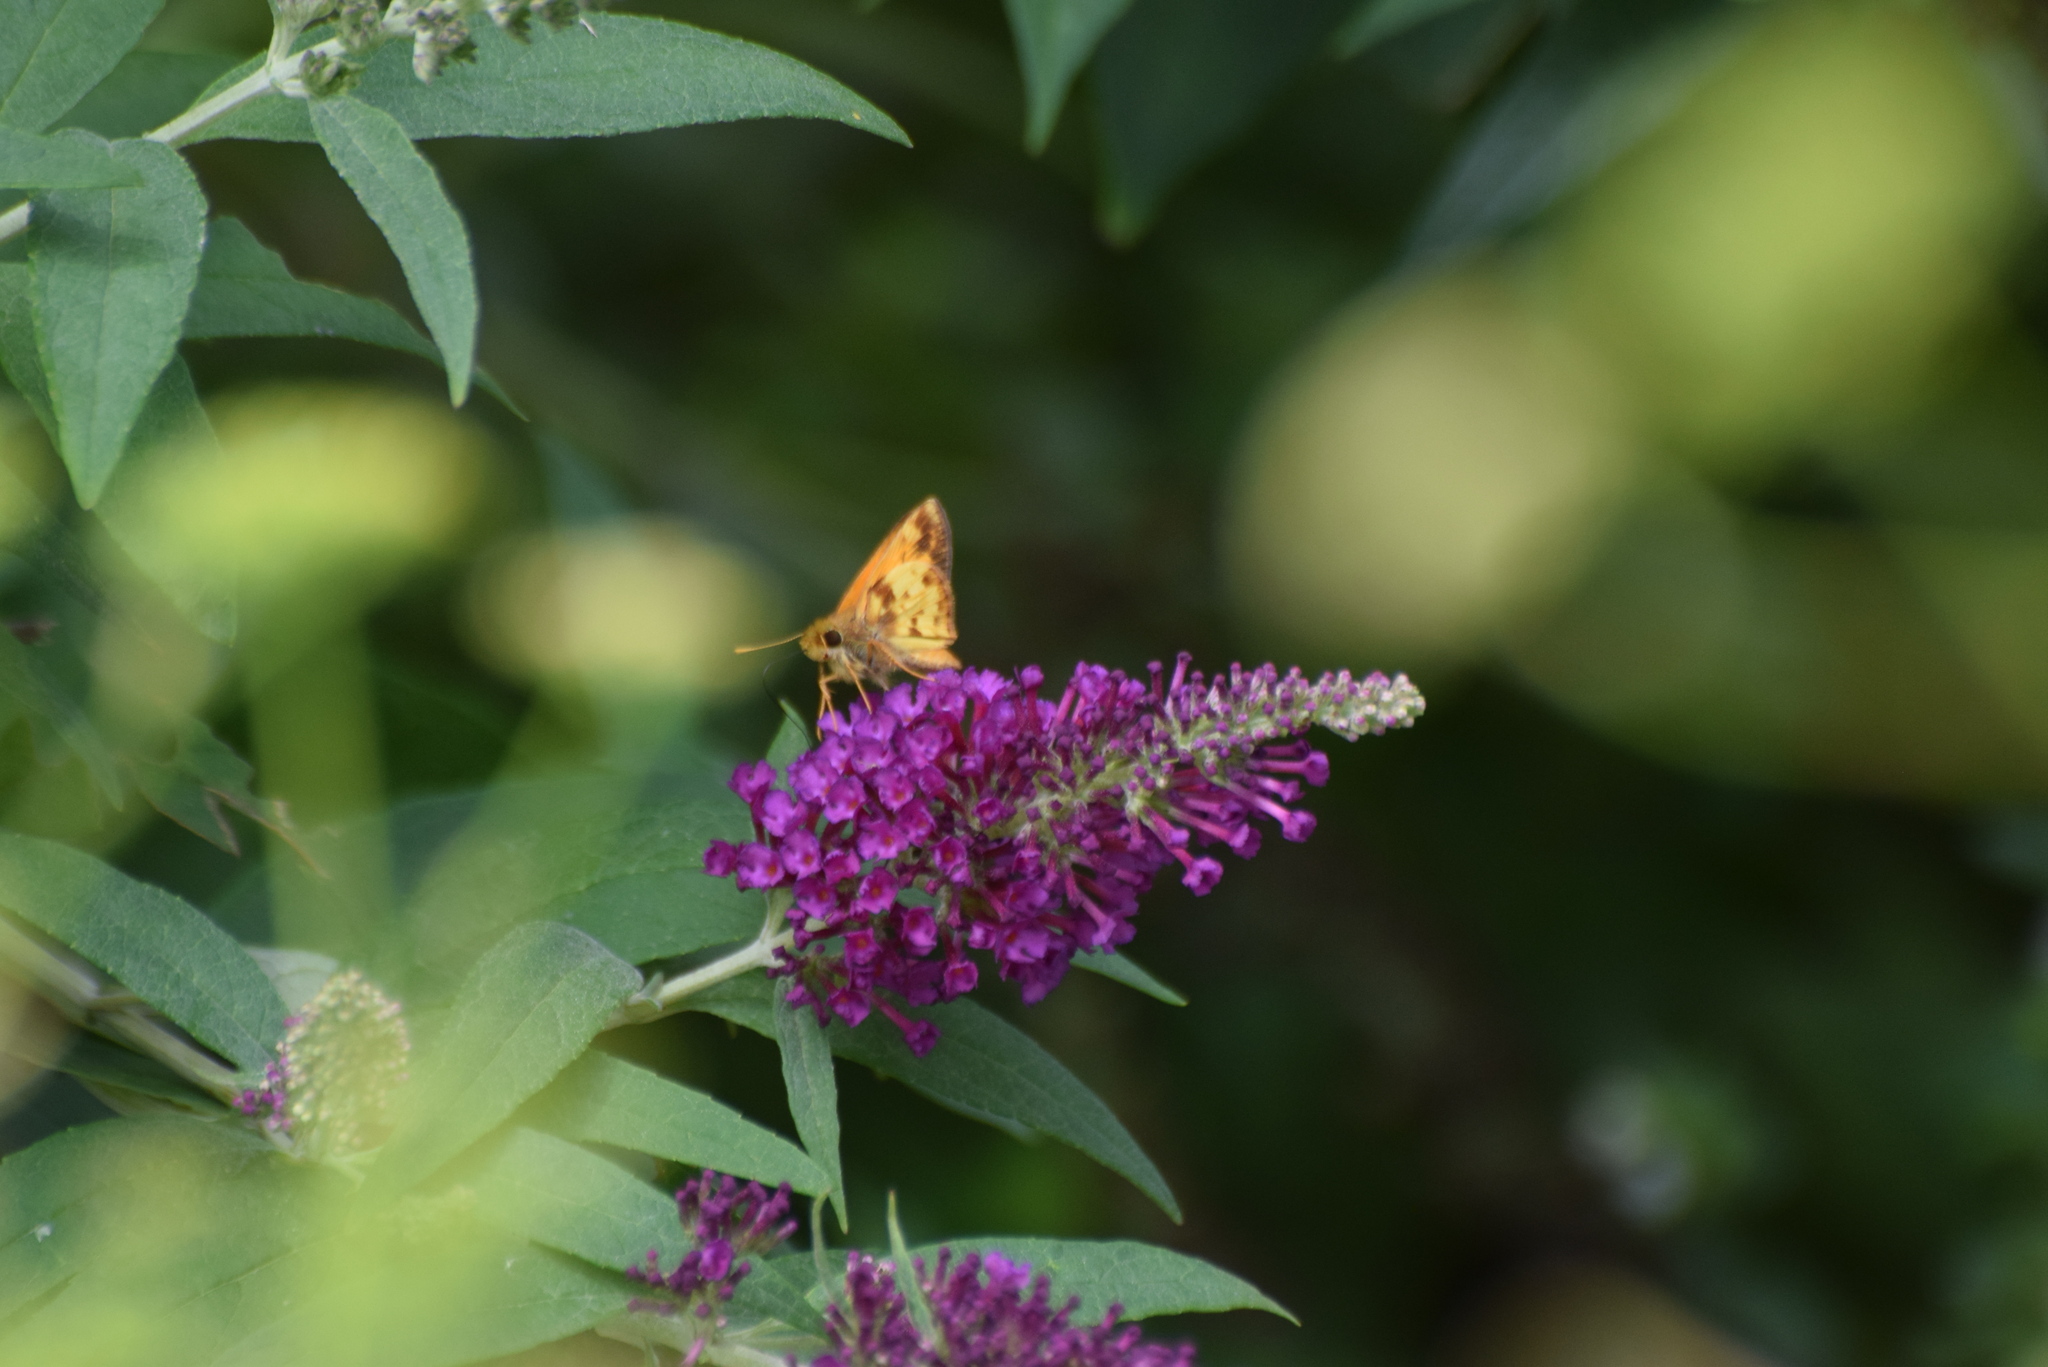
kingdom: Animalia
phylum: Arthropoda
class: Insecta
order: Lepidoptera
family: Hesperiidae
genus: Lon
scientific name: Lon zabulon
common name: Zabulon skipper
